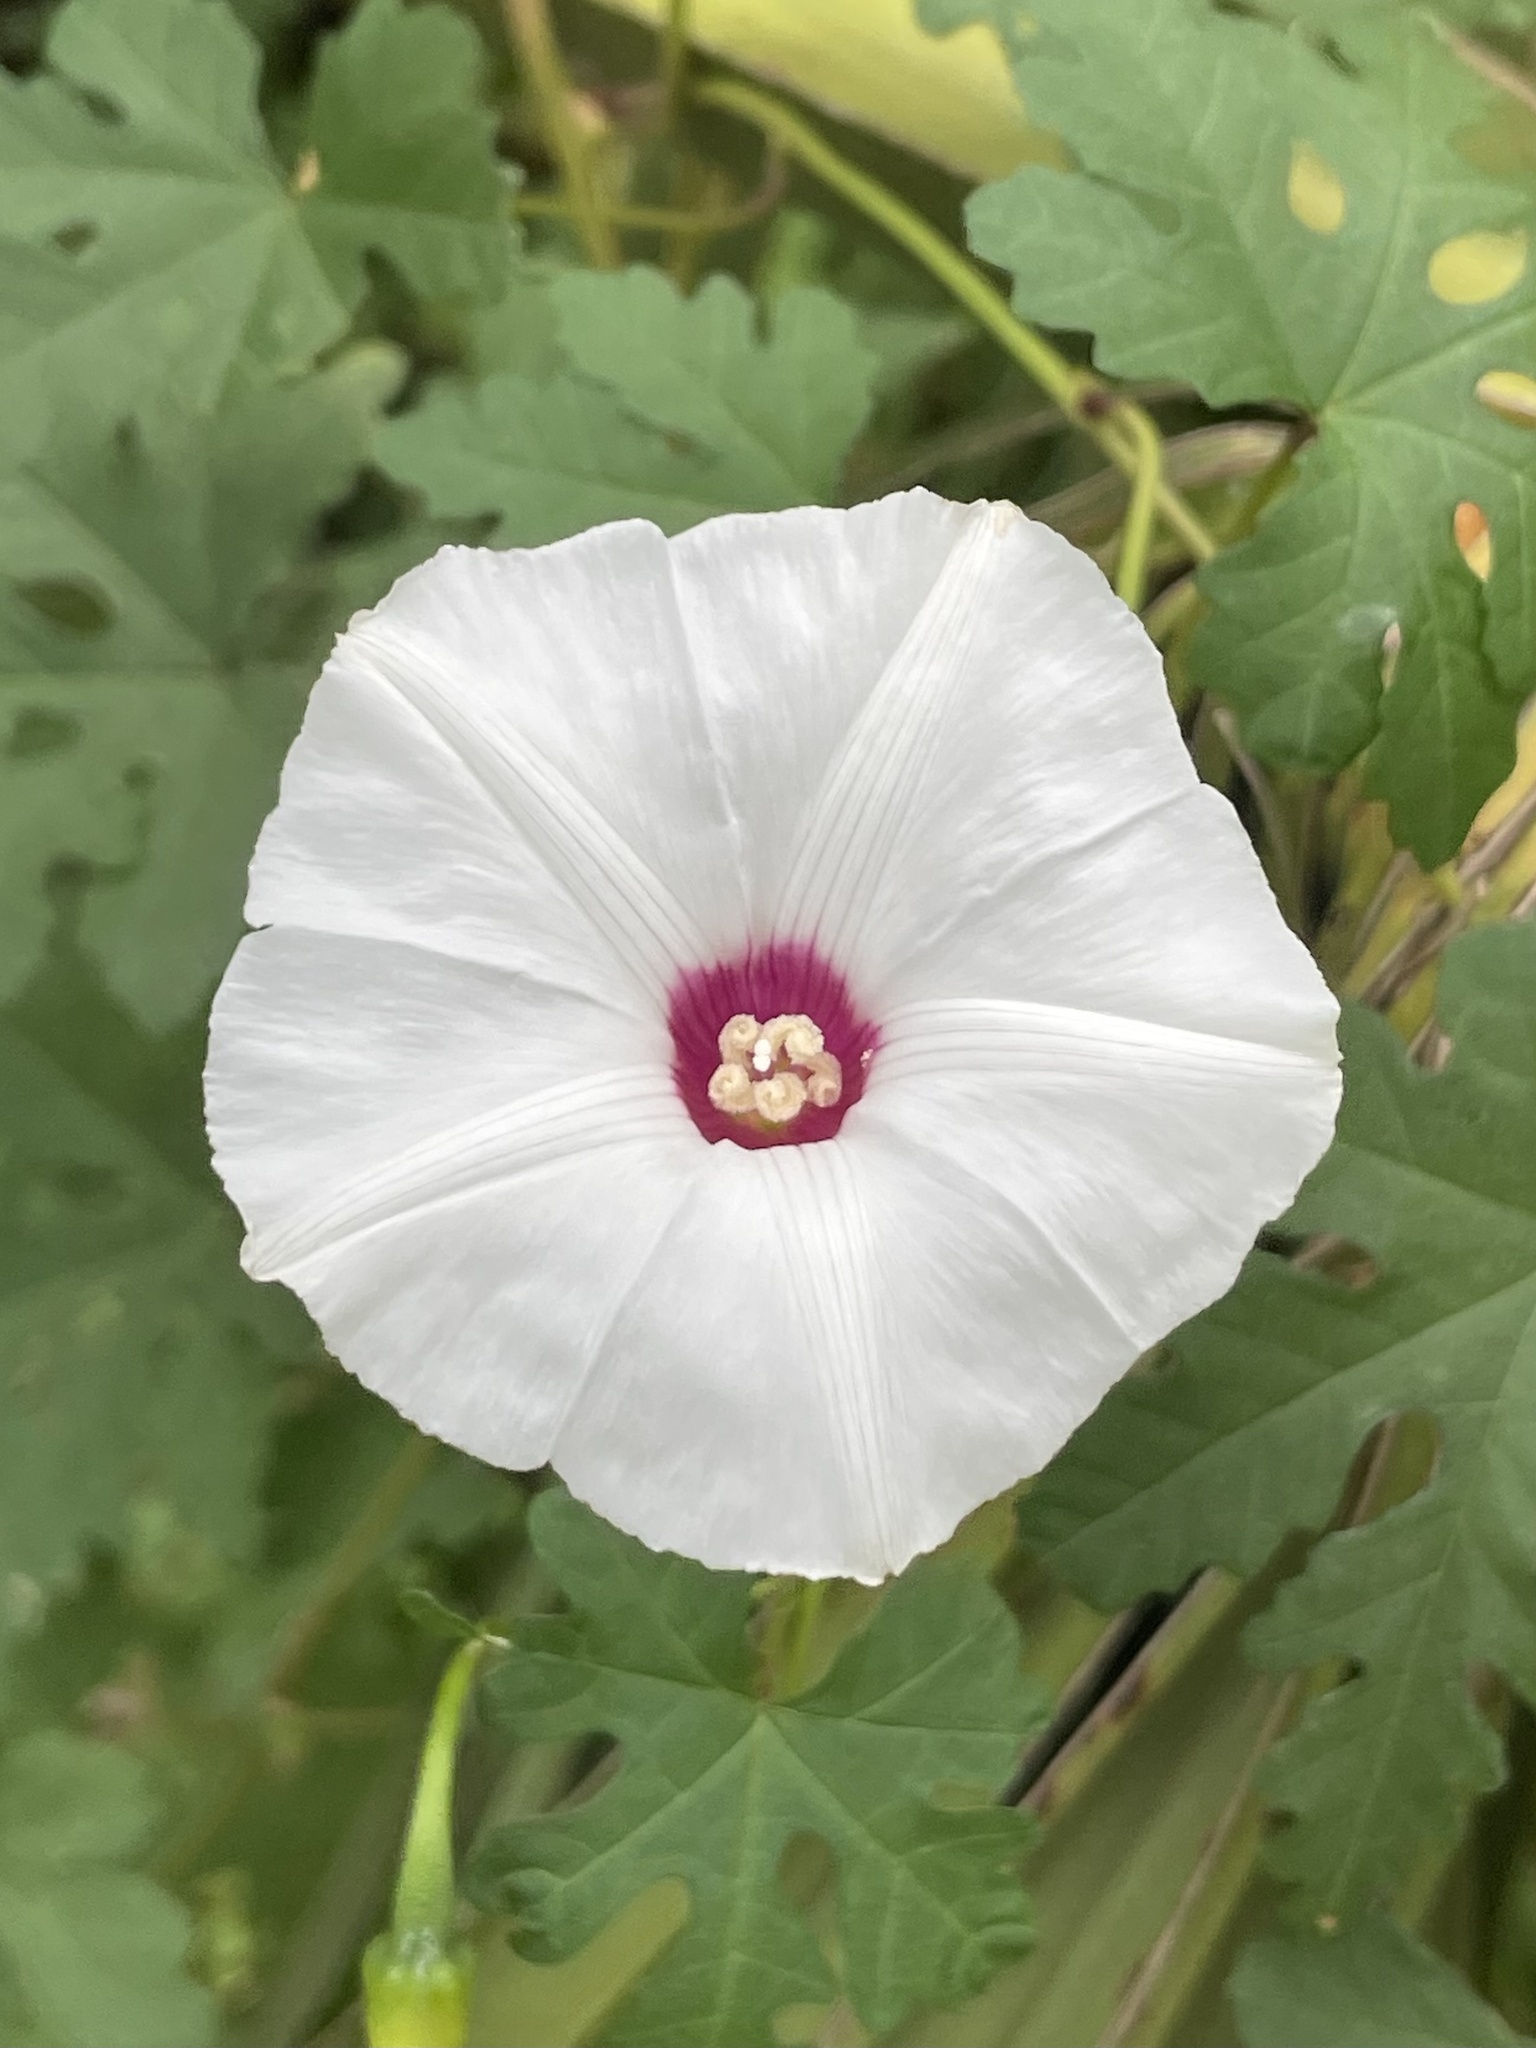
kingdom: Plantae
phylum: Tracheophyta
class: Magnoliopsida
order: Solanales
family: Convolvulaceae
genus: Distimake
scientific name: Distimake dissectus
